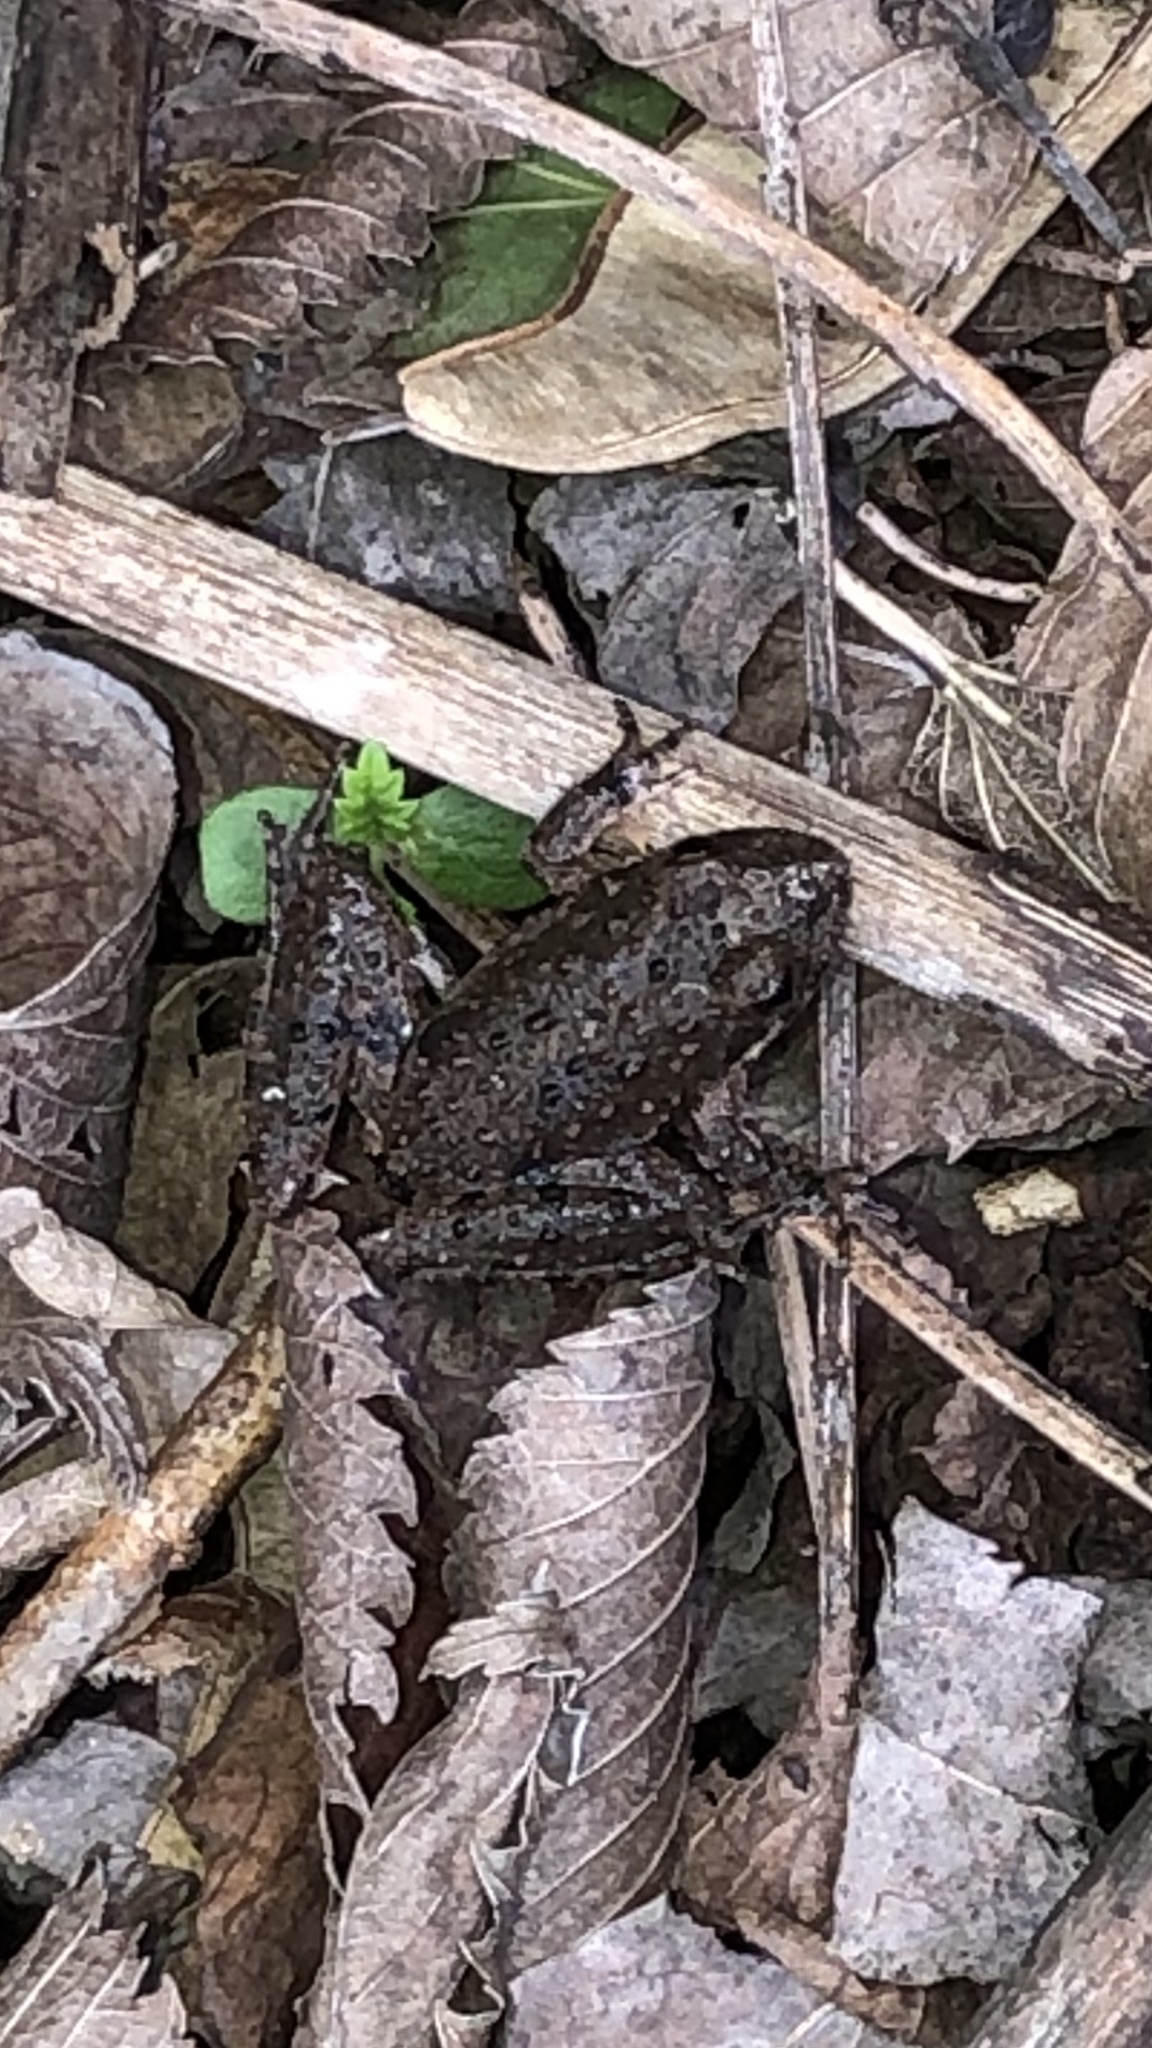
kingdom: Animalia
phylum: Chordata
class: Amphibia
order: Anura
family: Hylidae
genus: Acris
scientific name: Acris blanchardi
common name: Blanchard's cricket frog
